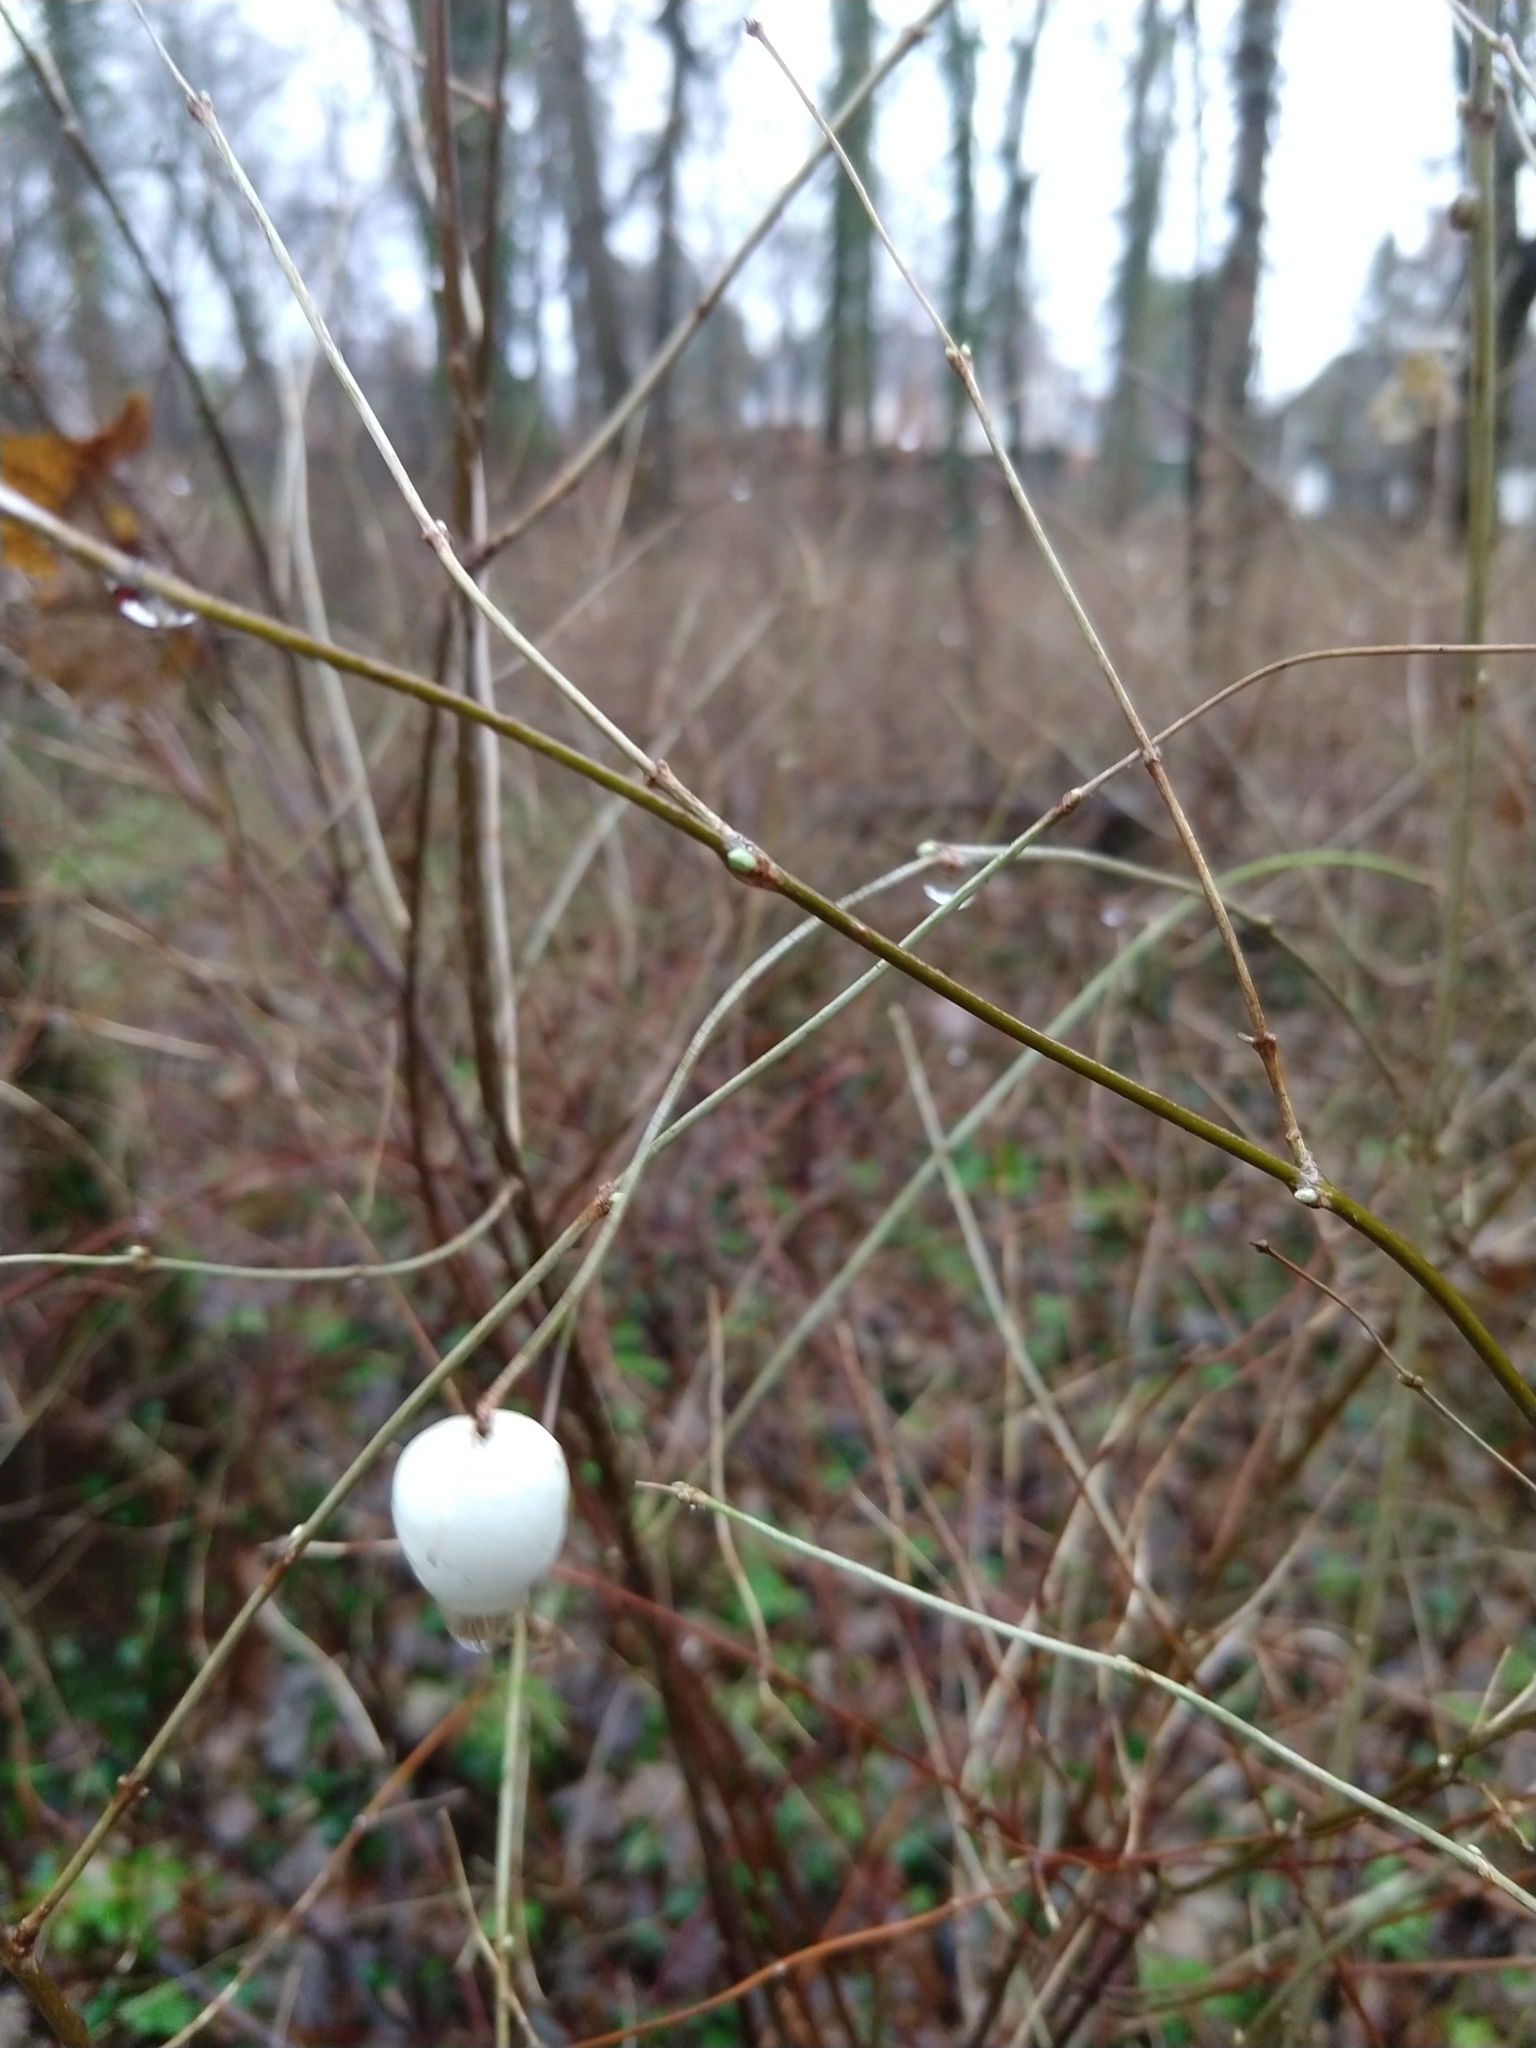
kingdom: Plantae
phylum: Tracheophyta
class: Magnoliopsida
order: Dipsacales
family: Caprifoliaceae
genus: Symphoricarpos
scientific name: Symphoricarpos albus
